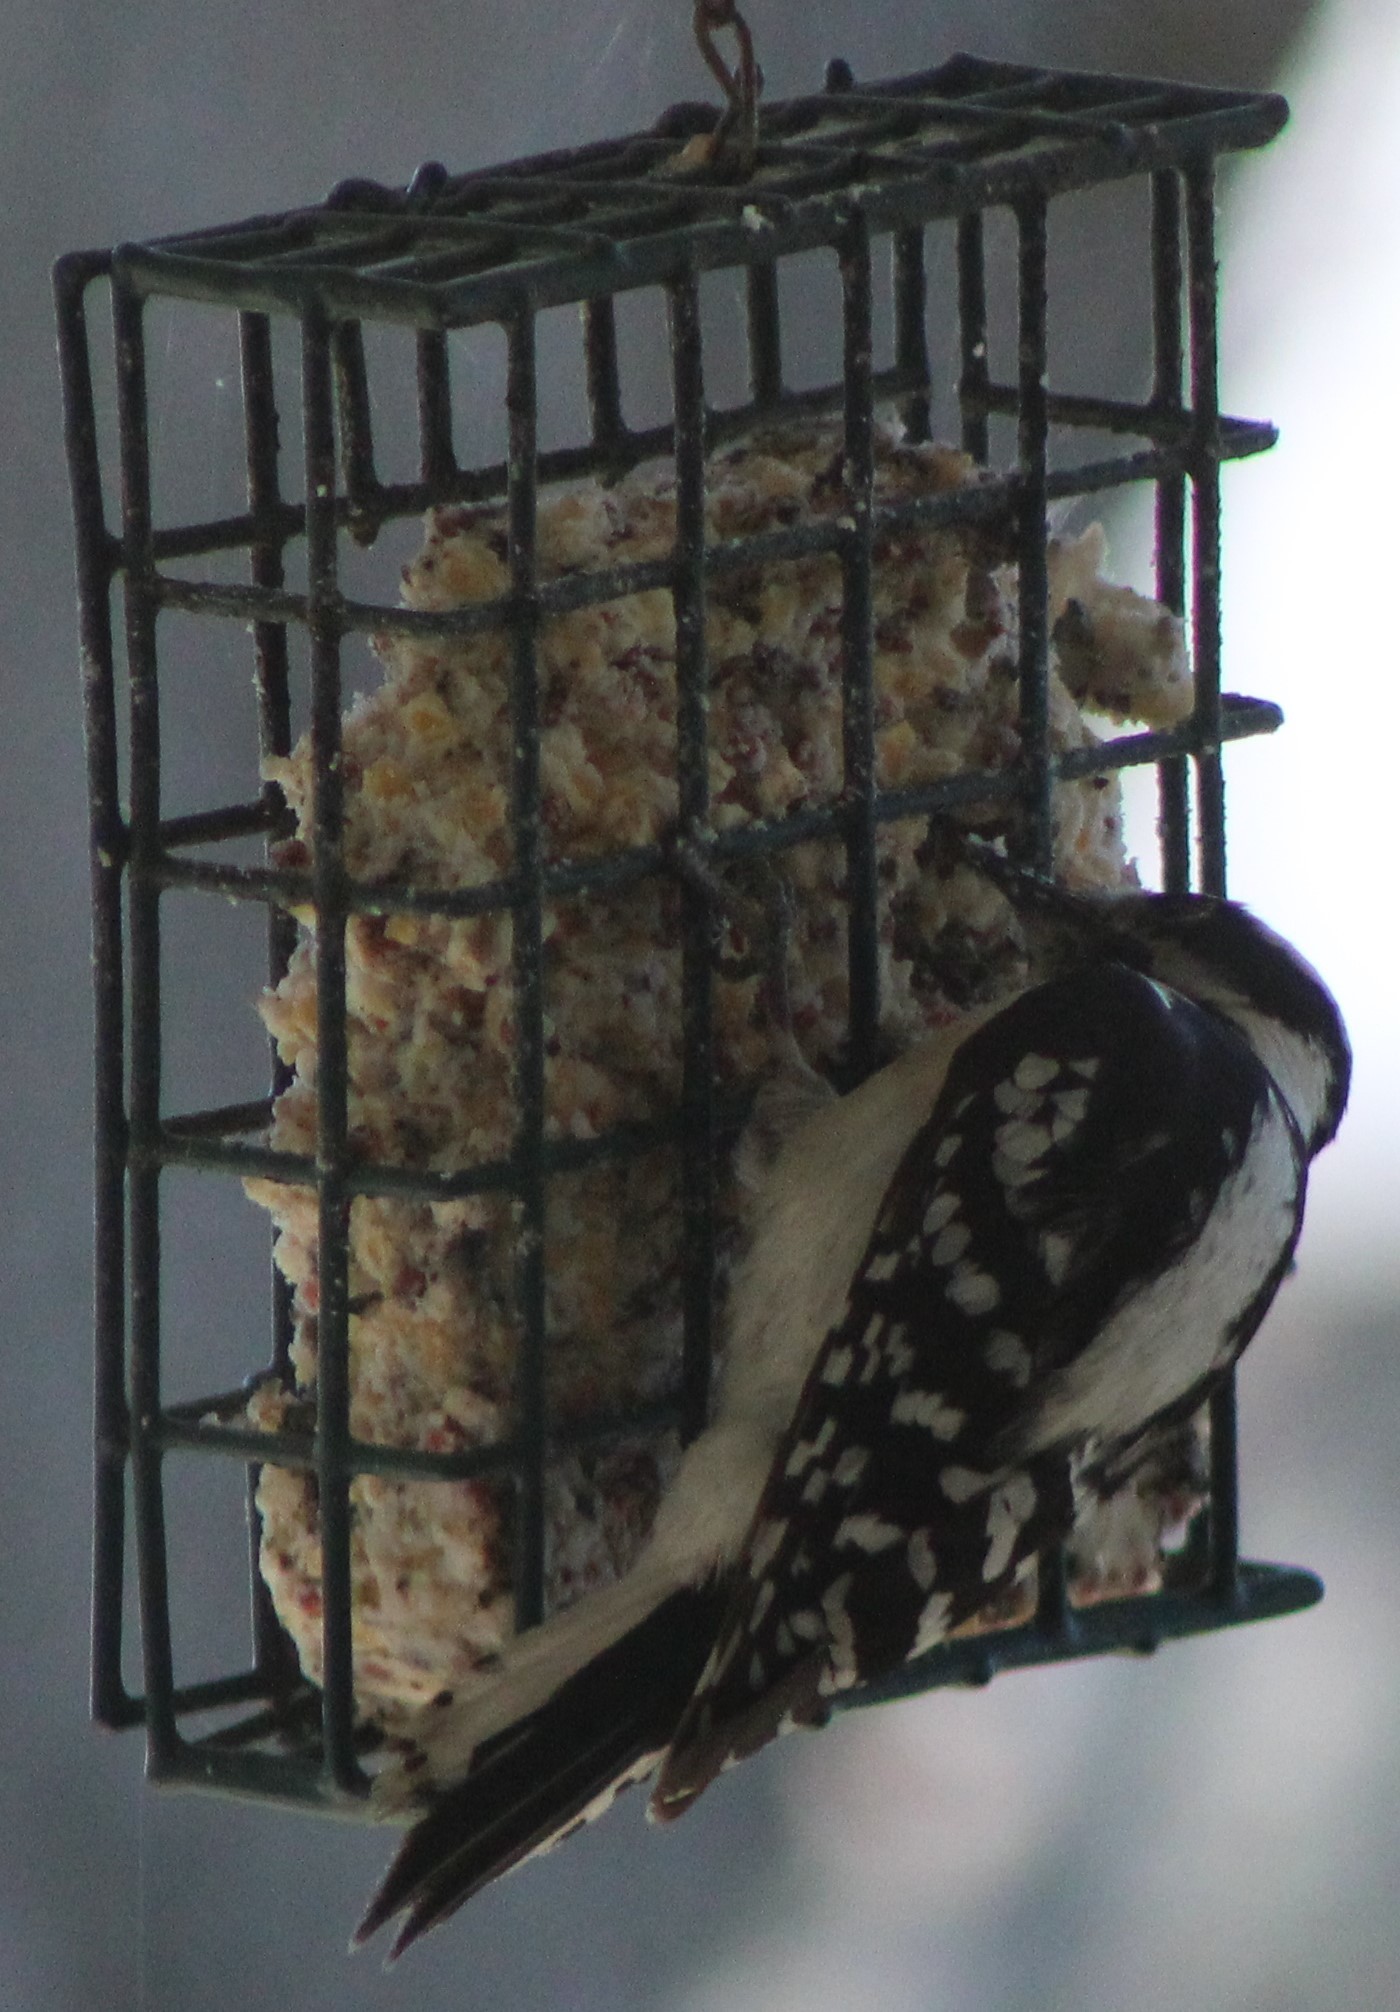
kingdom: Animalia
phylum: Chordata
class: Aves
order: Piciformes
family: Picidae
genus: Dryobates
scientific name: Dryobates pubescens
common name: Downy woodpecker
